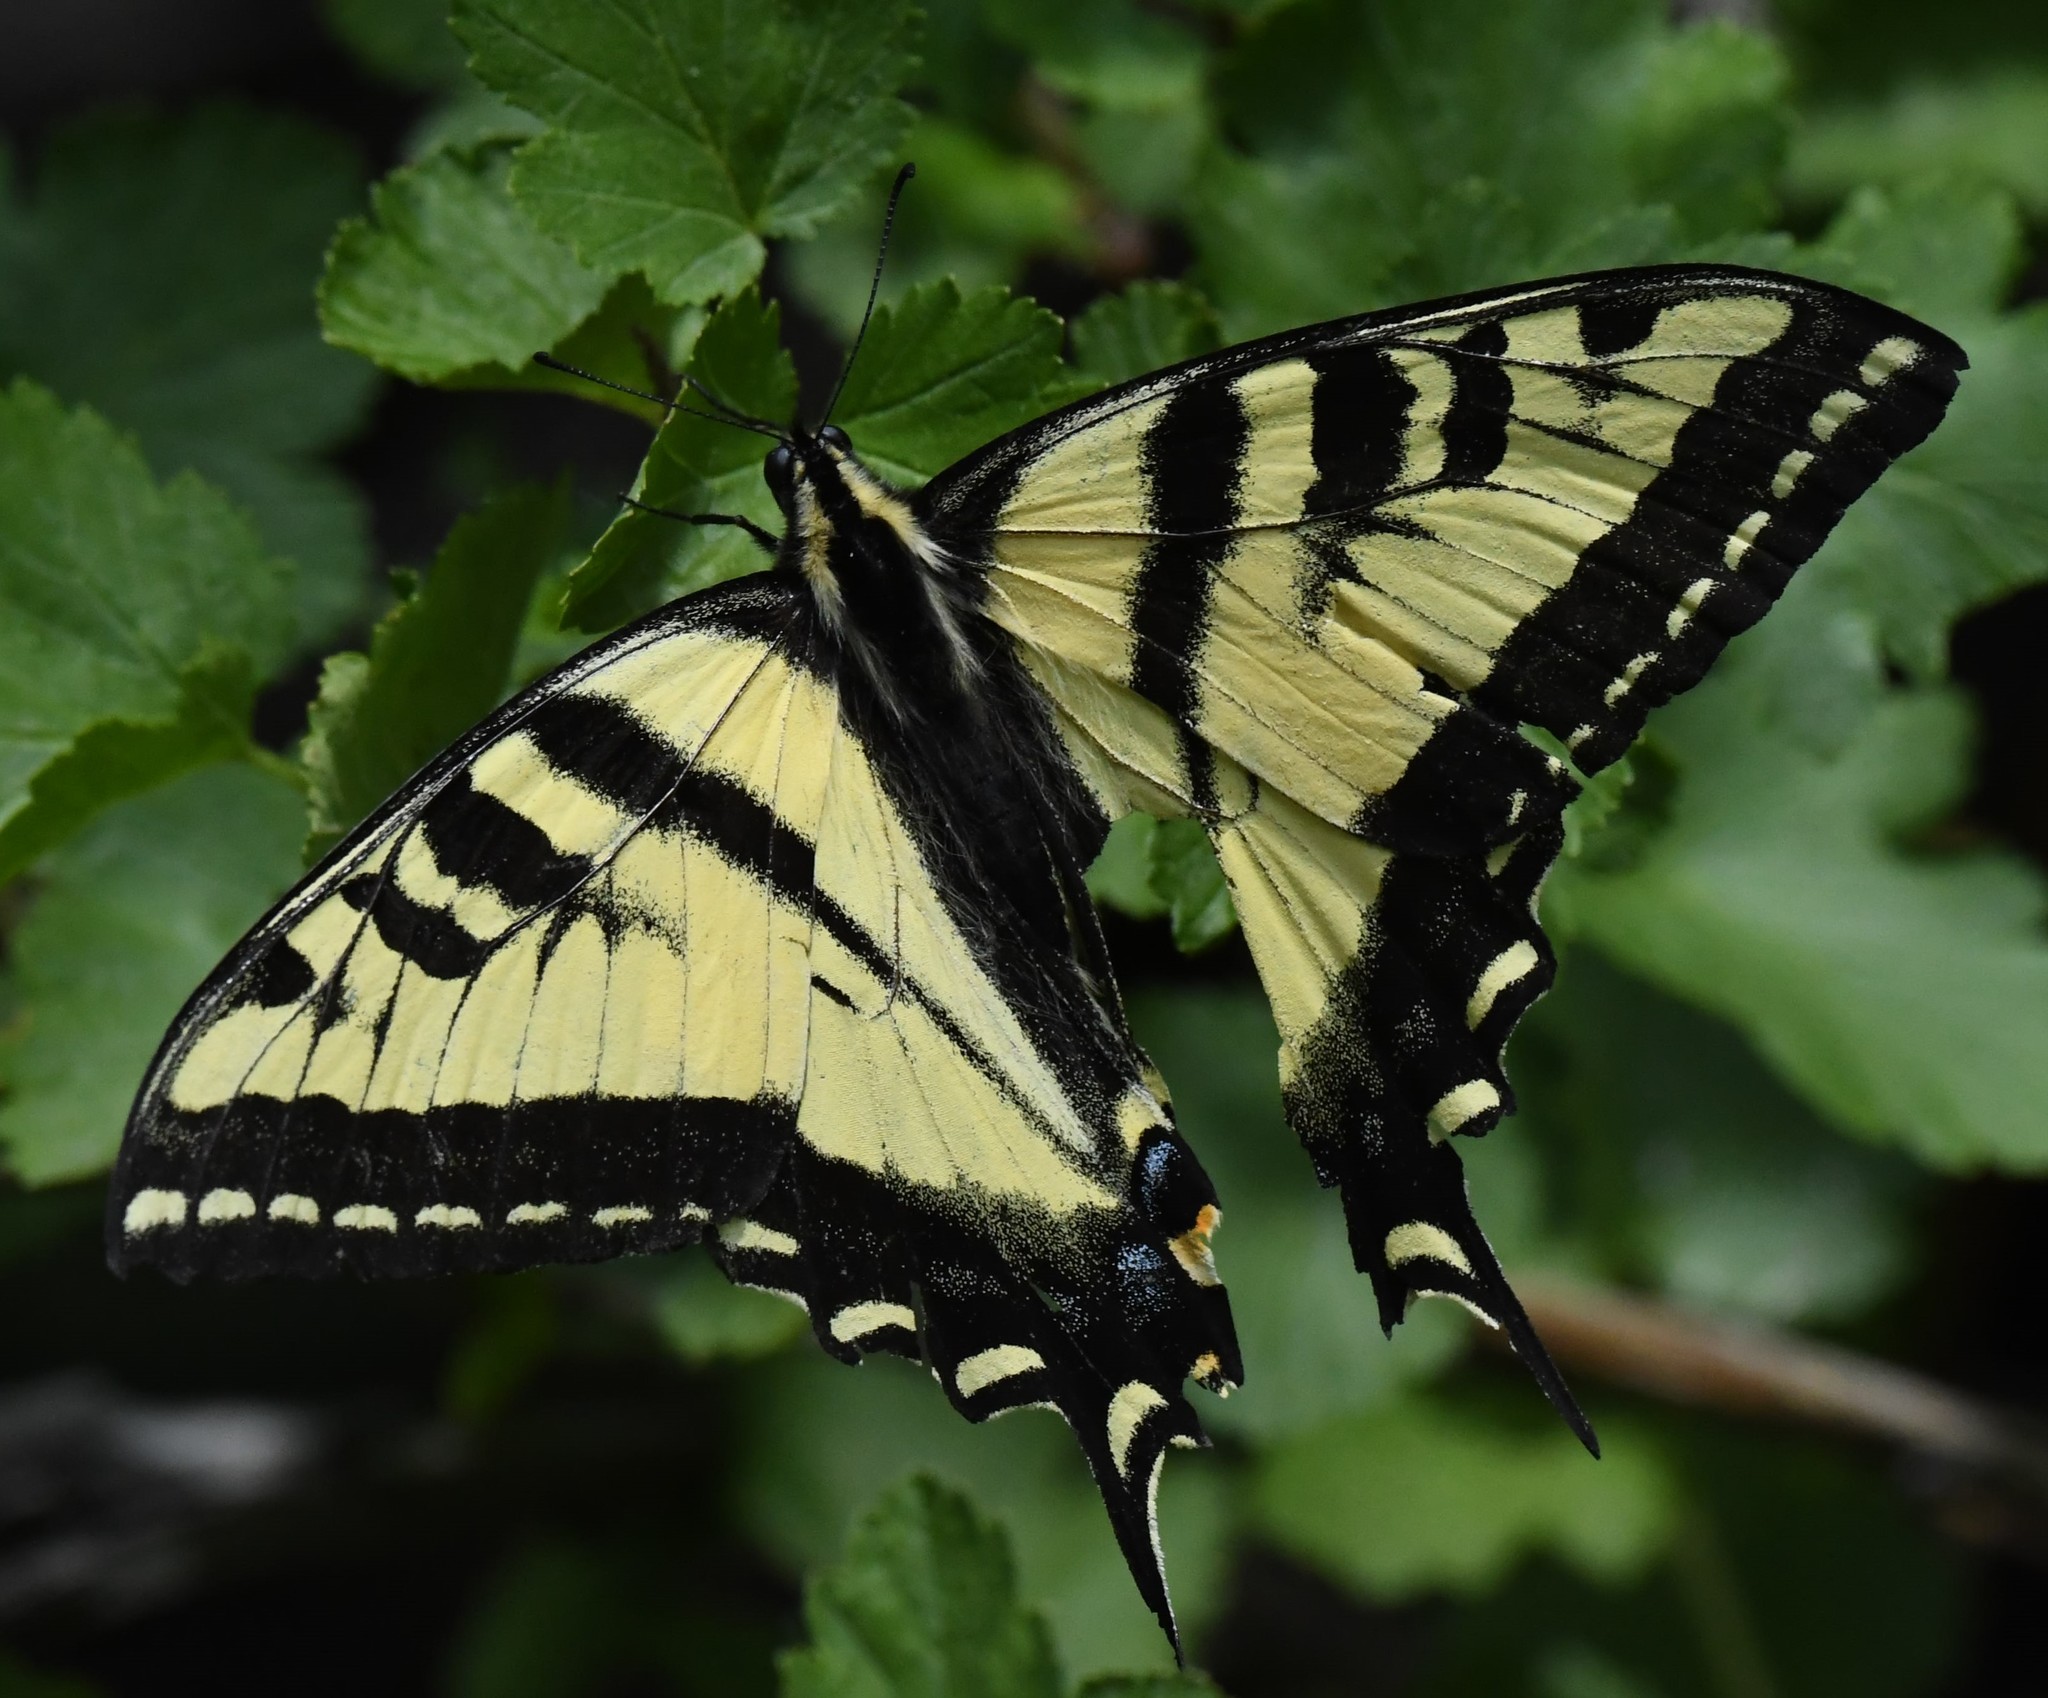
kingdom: Animalia
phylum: Arthropoda
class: Insecta
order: Lepidoptera
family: Papilionidae
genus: Papilio
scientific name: Papilio rutulus
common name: Western tiger swallowtail
